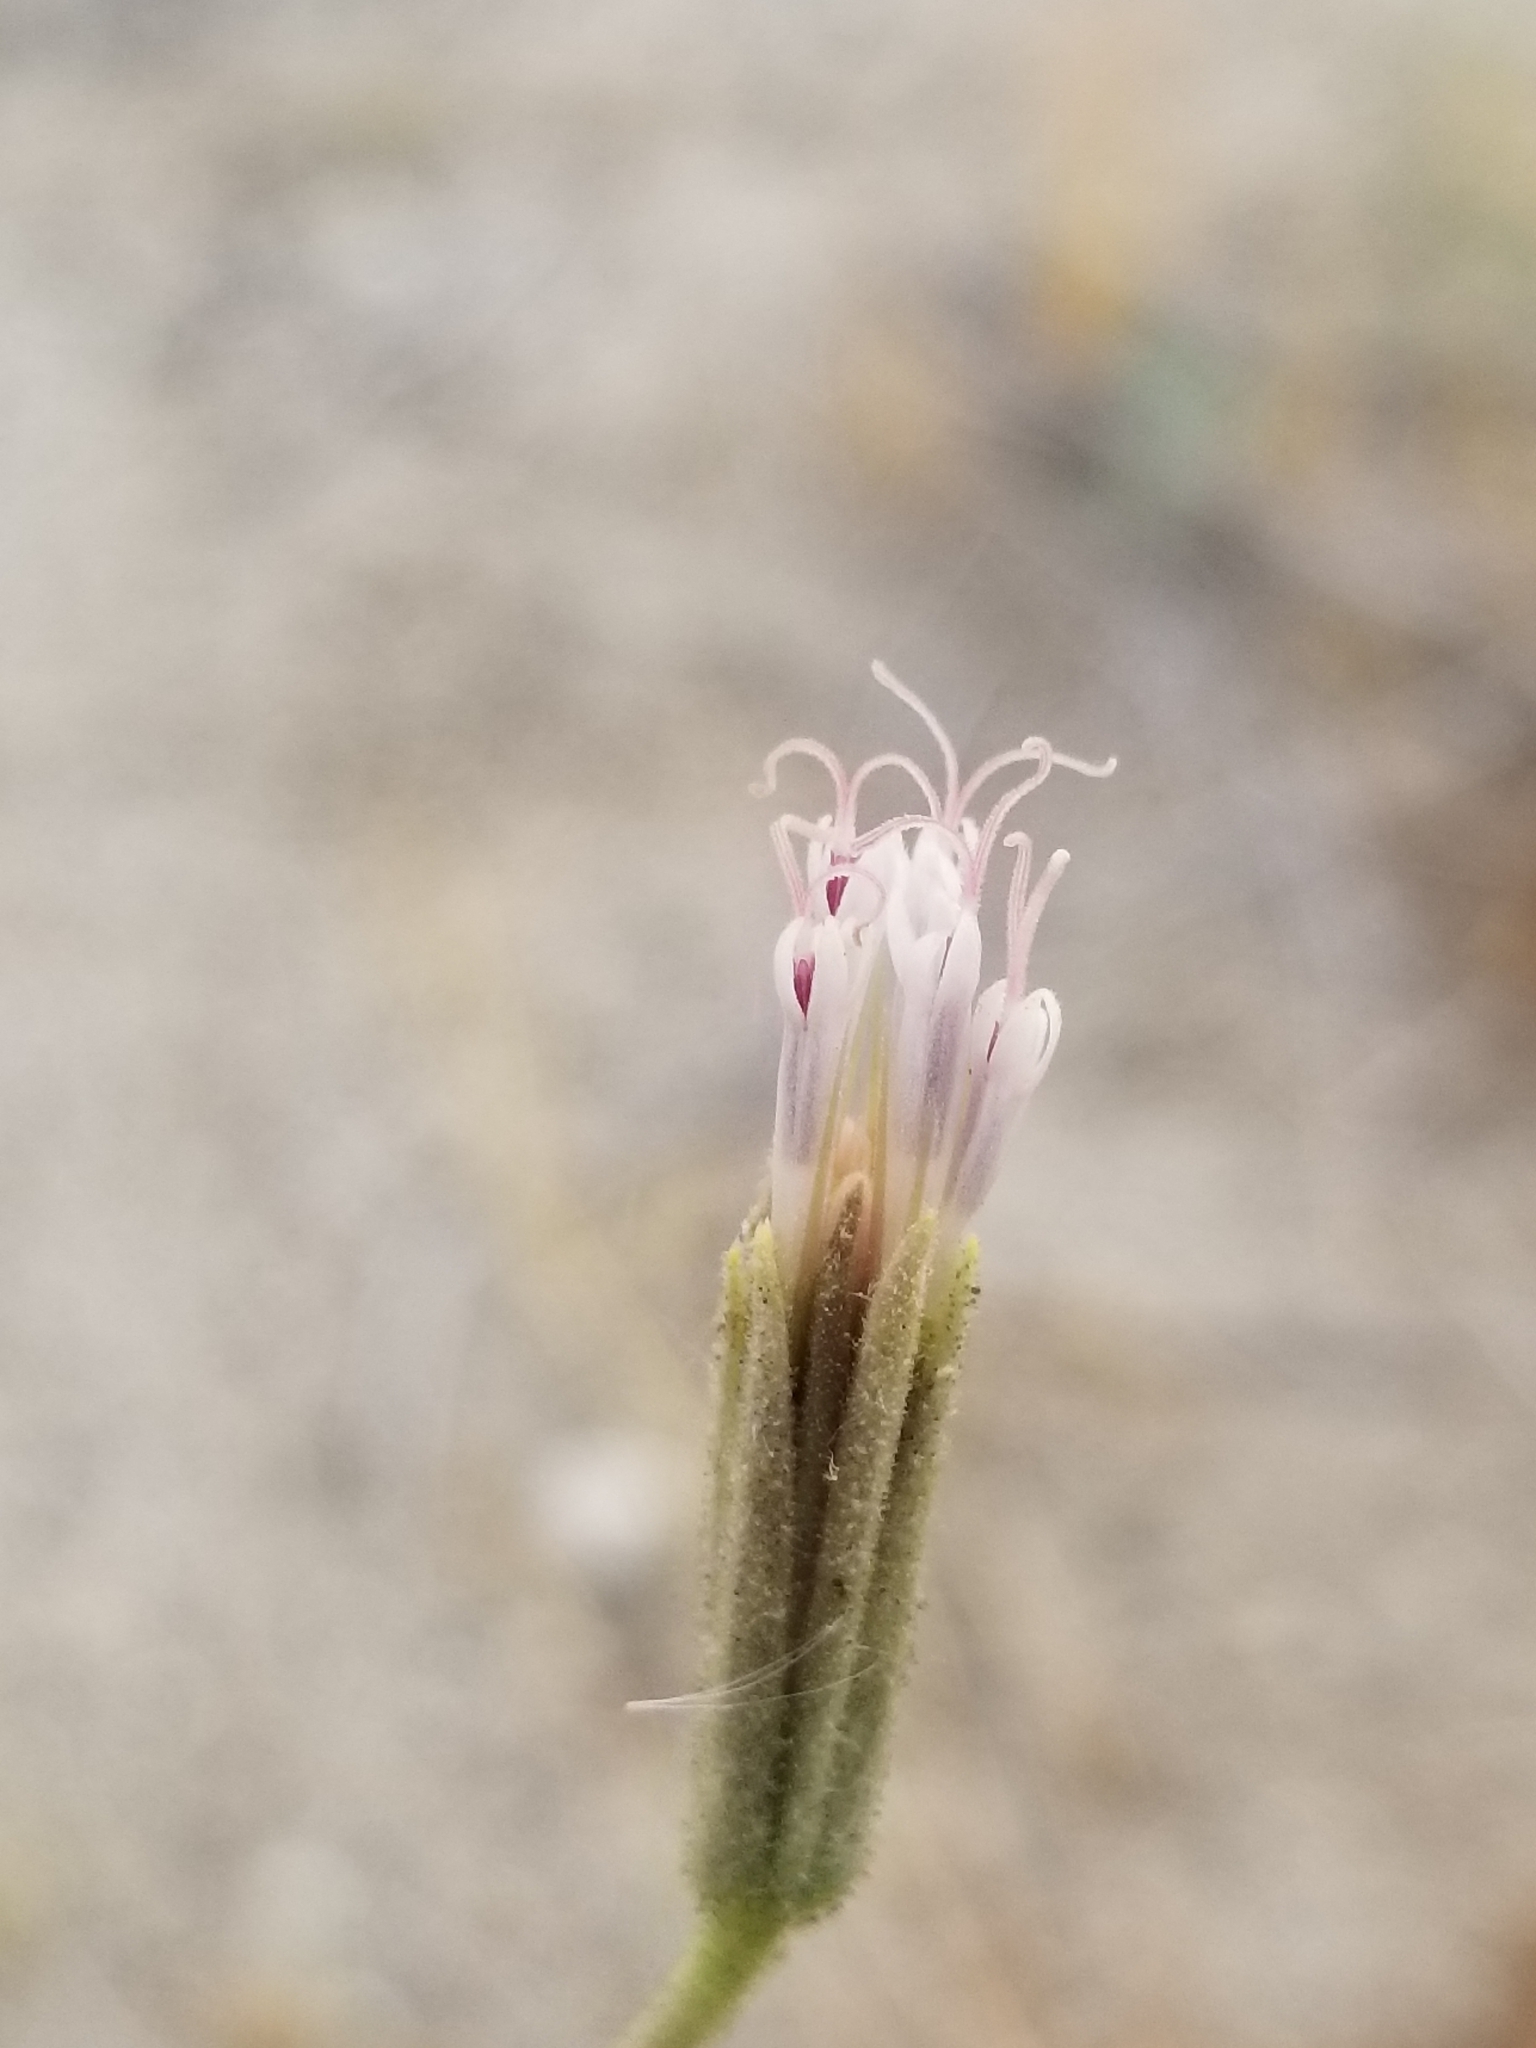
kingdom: Plantae
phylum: Tracheophyta
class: Magnoliopsida
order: Asterales
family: Asteraceae
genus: Palafoxia
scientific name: Palafoxia arida
